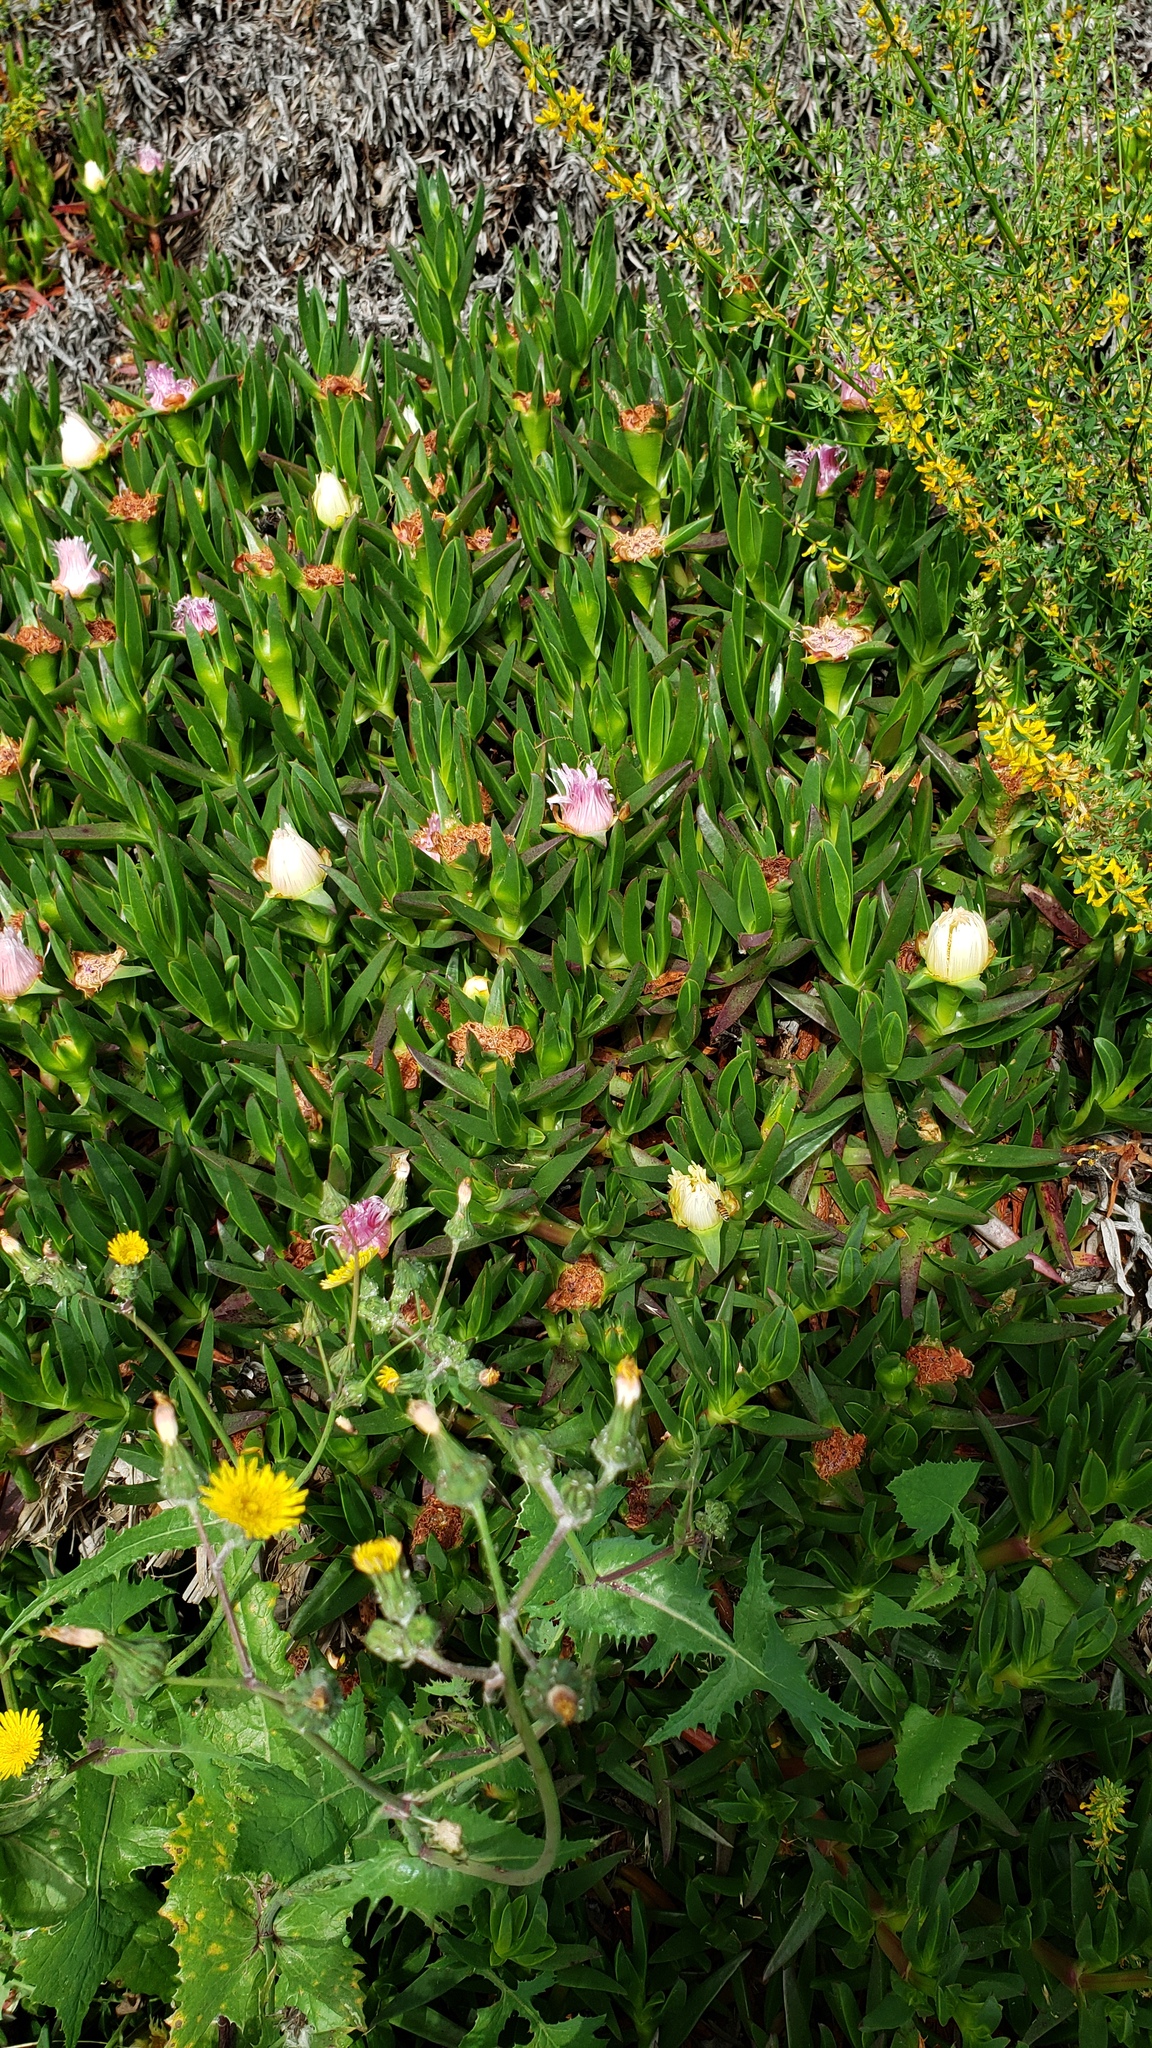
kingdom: Plantae
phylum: Tracheophyta
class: Magnoliopsida
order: Caryophyllales
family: Aizoaceae
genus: Carpobrotus
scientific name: Carpobrotus edulis
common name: Hottentot-fig
